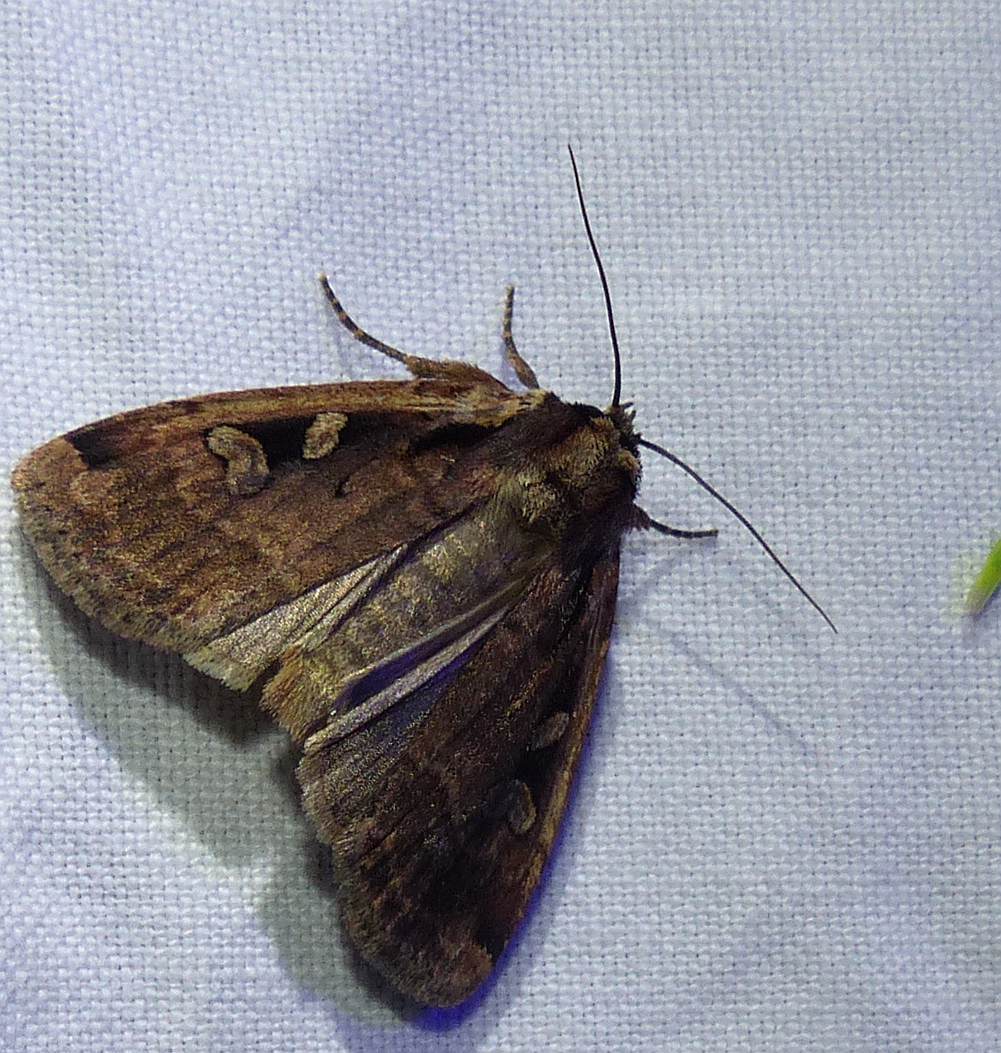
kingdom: Animalia
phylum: Arthropoda
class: Insecta
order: Lepidoptera
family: Noctuidae
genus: Eueretagrotis
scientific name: Eueretagrotis sigmoides
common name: Sigmoid dart
